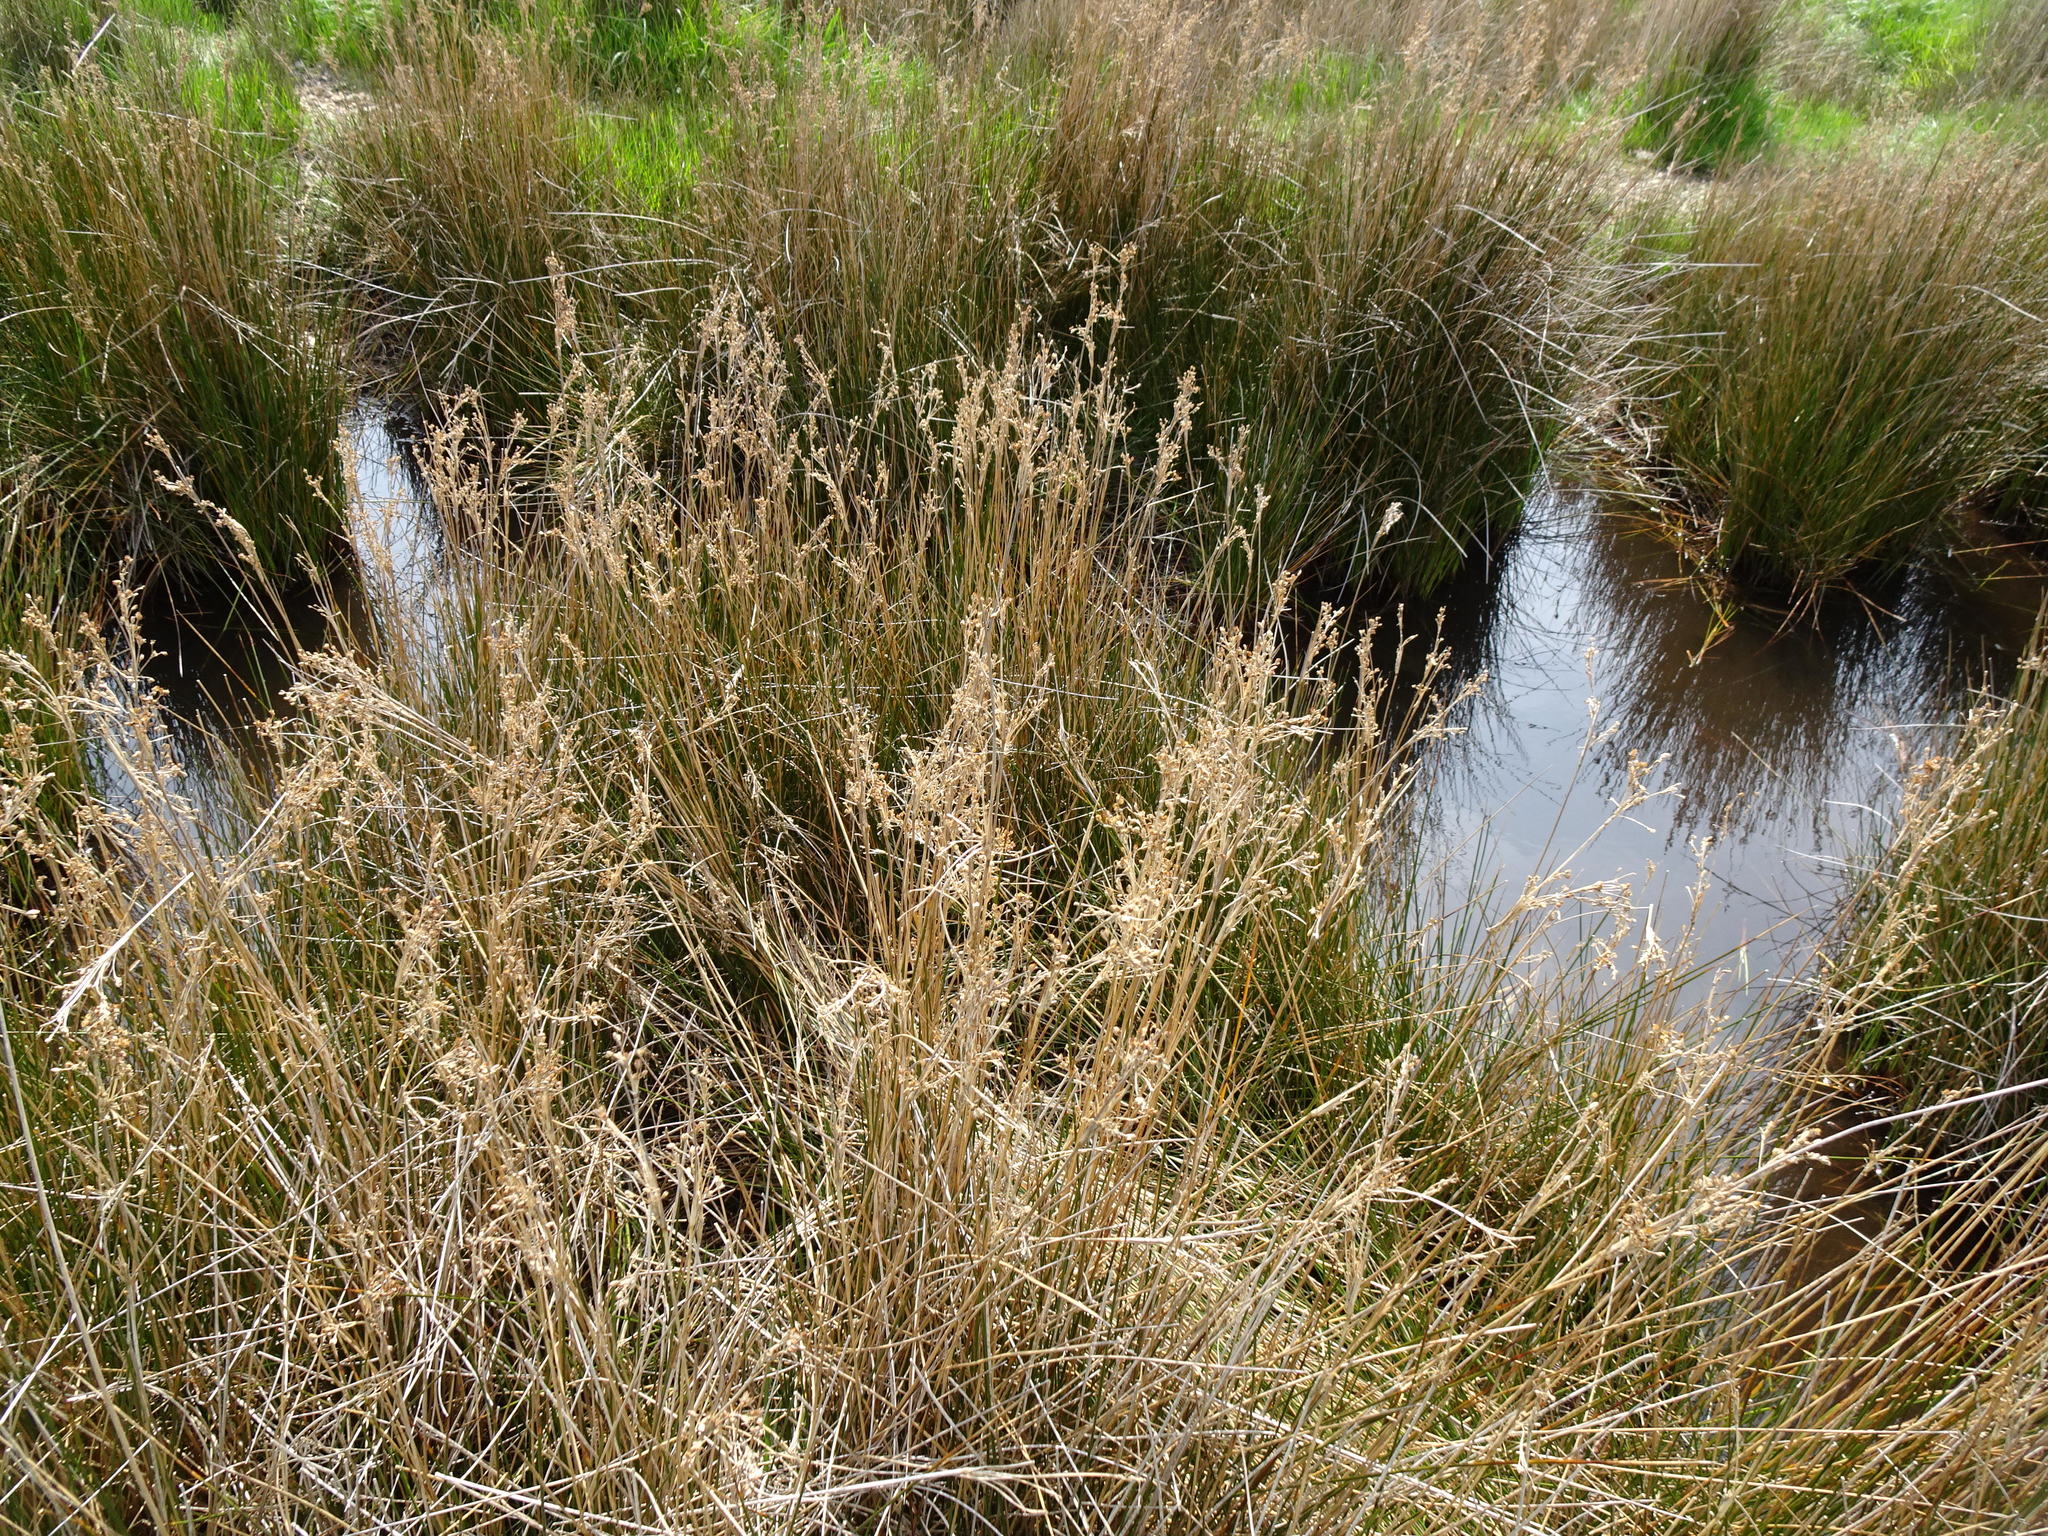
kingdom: Plantae
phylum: Tracheophyta
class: Liliopsida
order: Poales
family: Juncaceae
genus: Juncus
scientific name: Juncus maritimus
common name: Sea rush
